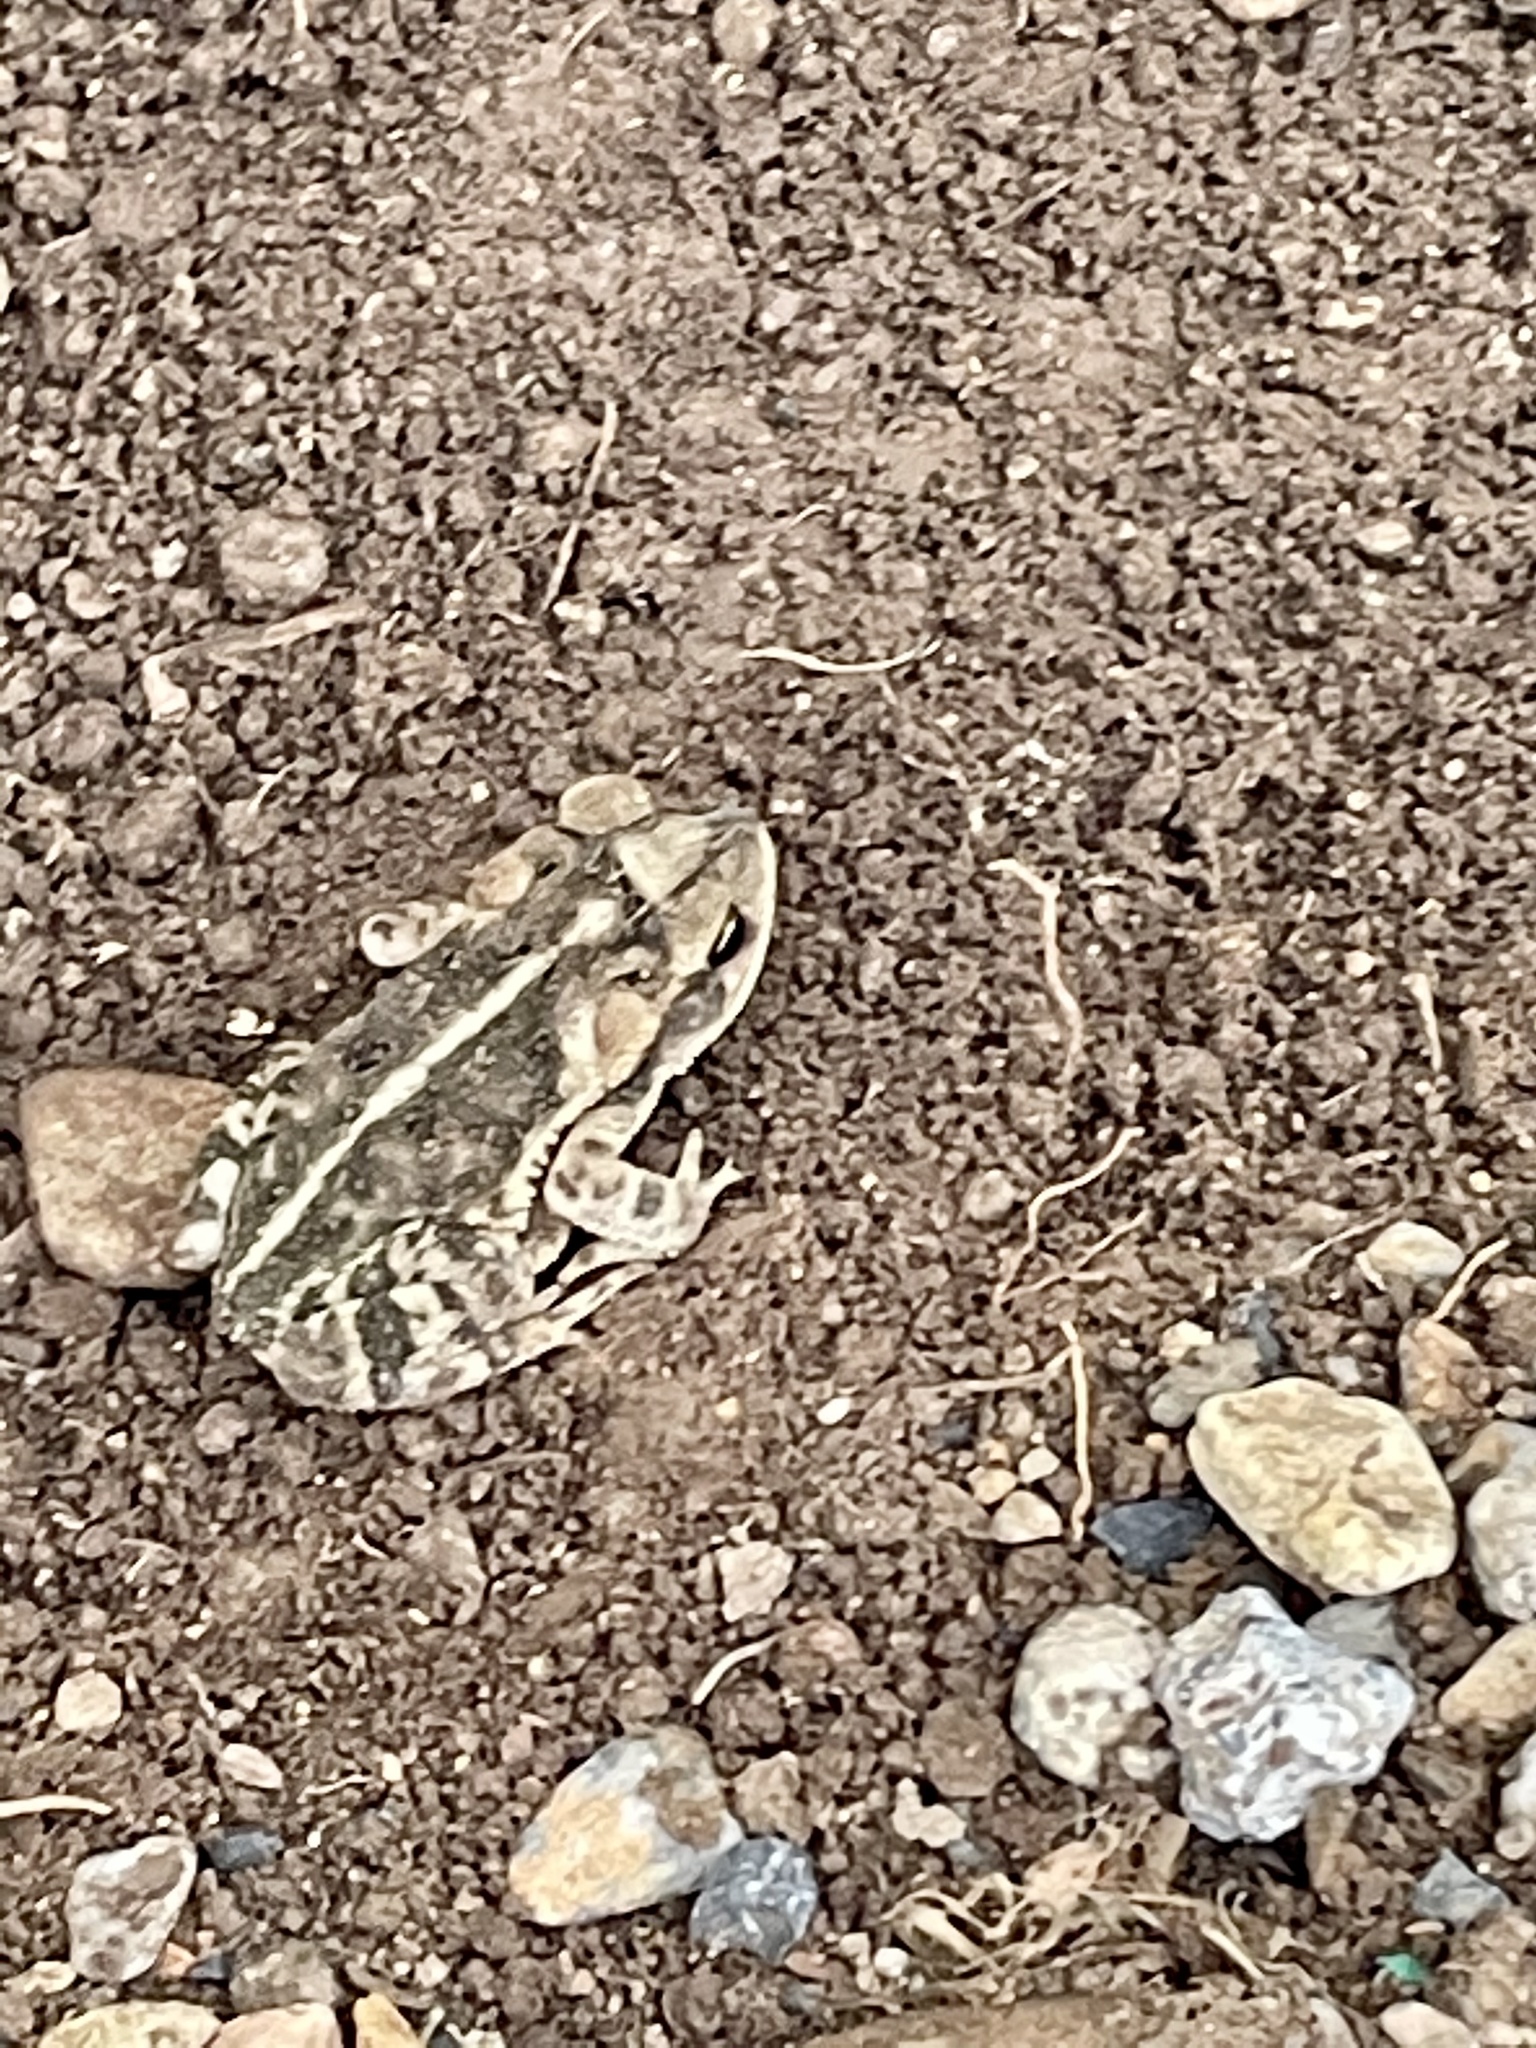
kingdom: Animalia
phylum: Chordata
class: Amphibia
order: Anura
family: Bufonidae
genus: Incilius
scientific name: Incilius nebulifer
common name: Gulf coast toad
